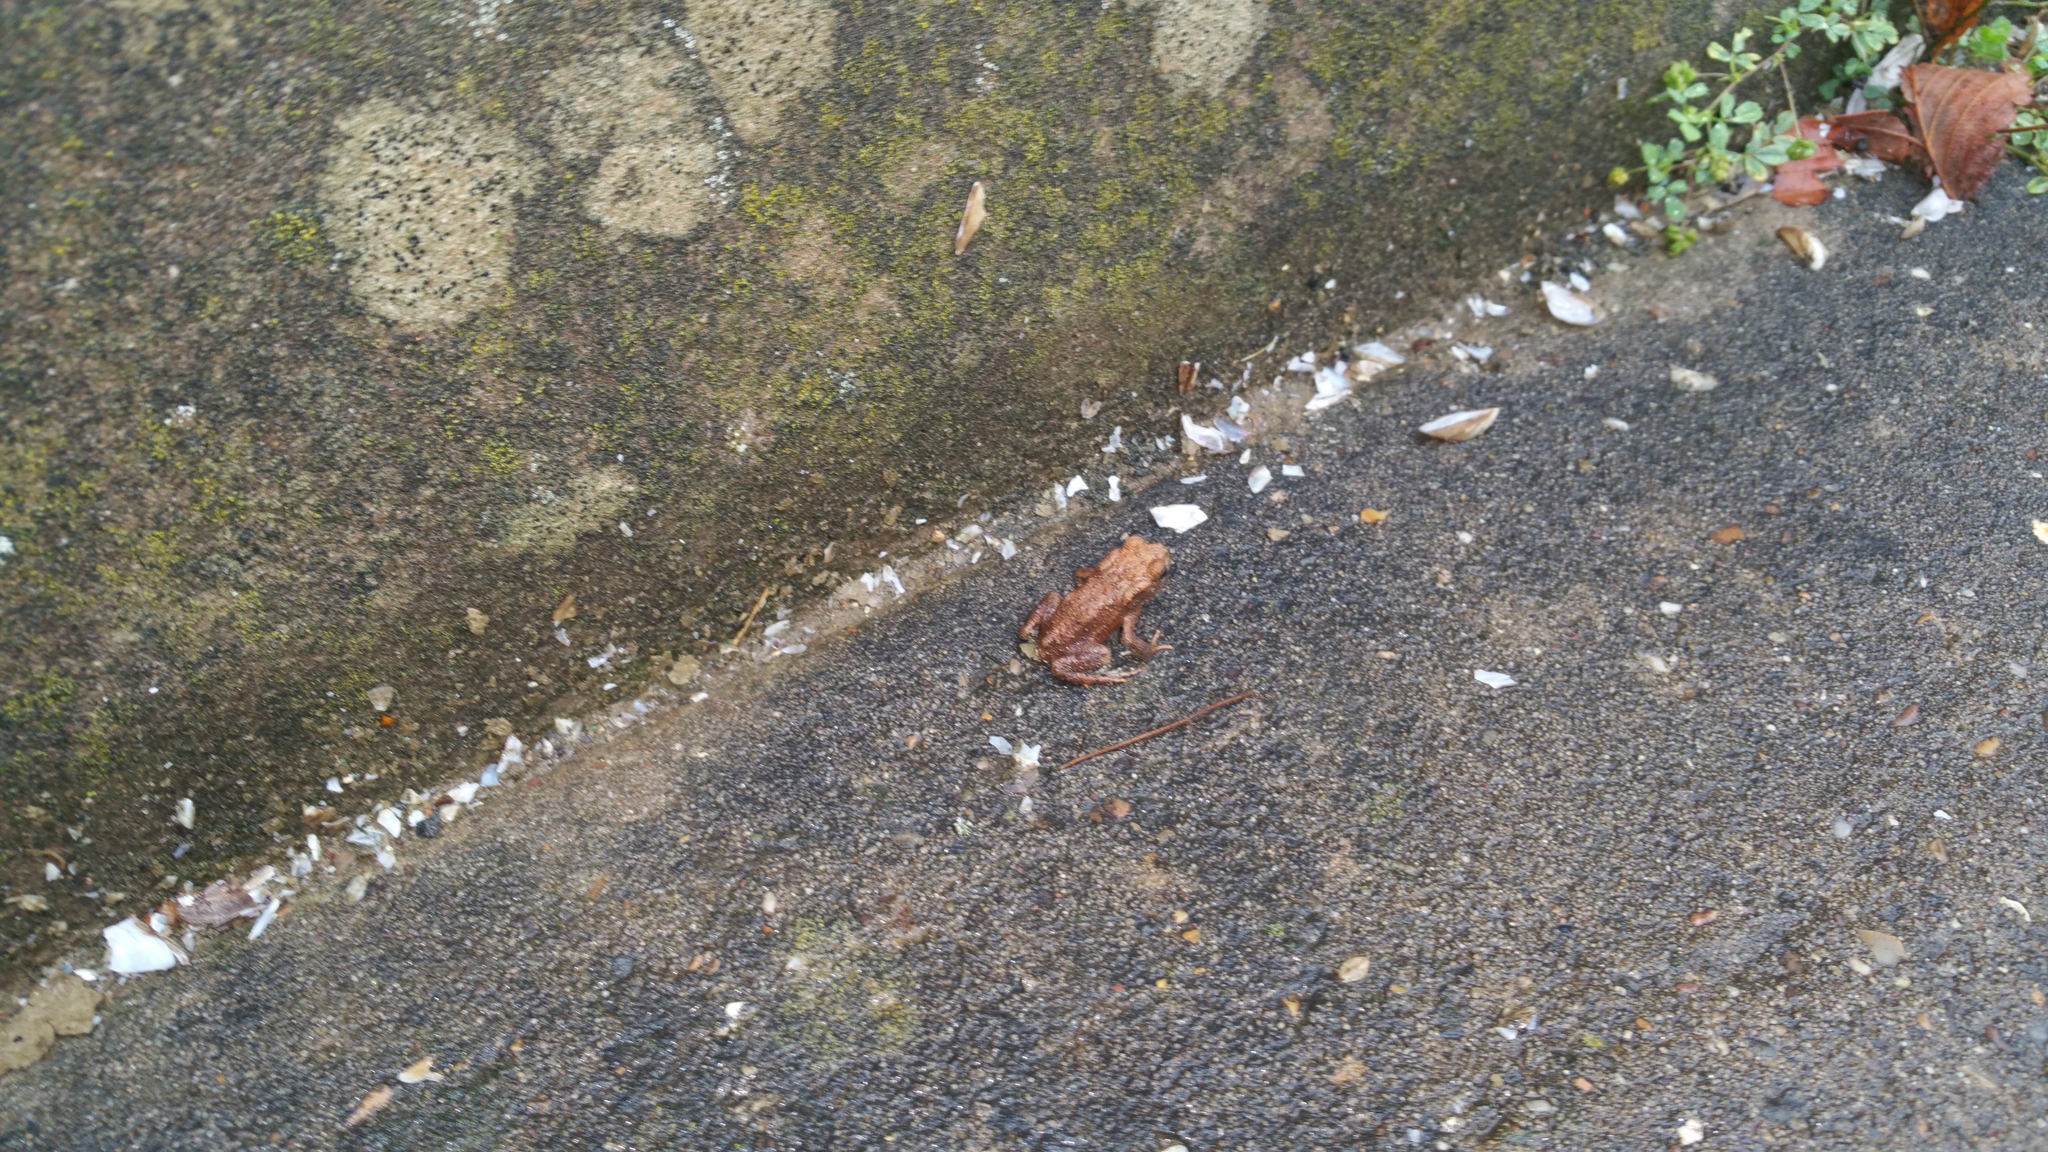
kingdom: Animalia
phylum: Chordata
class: Amphibia
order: Anura
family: Bufonidae
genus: Bufo
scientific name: Bufo bufo
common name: Common toad
